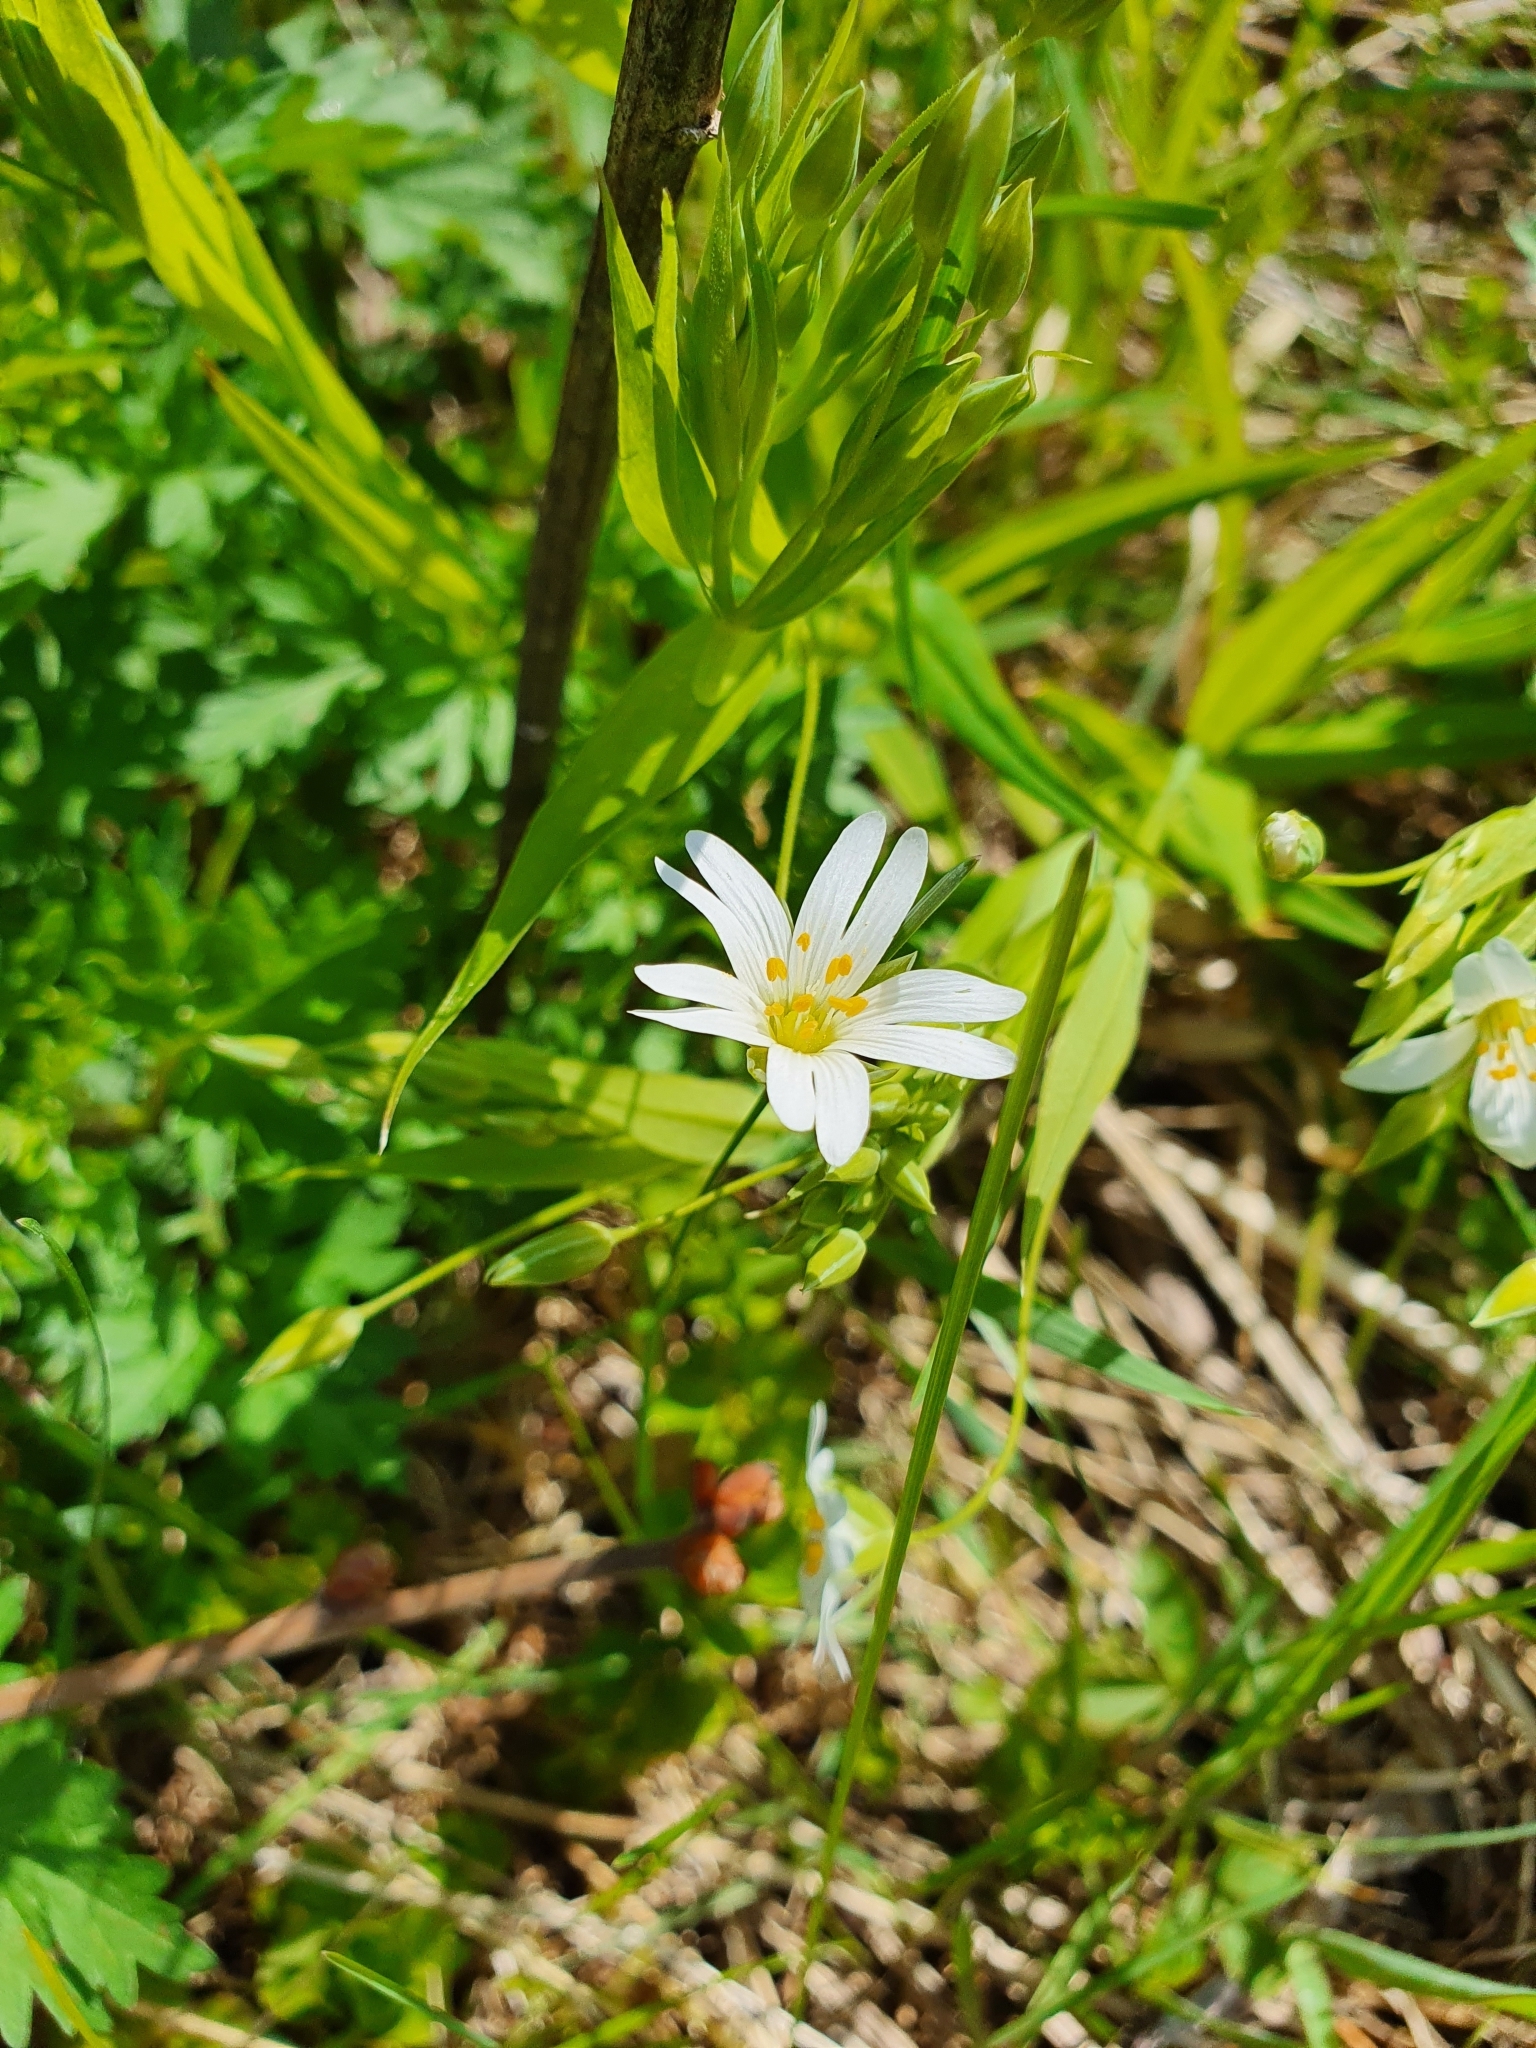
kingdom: Plantae
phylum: Tracheophyta
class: Magnoliopsida
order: Caryophyllales
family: Caryophyllaceae
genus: Rabelera
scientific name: Rabelera holostea
